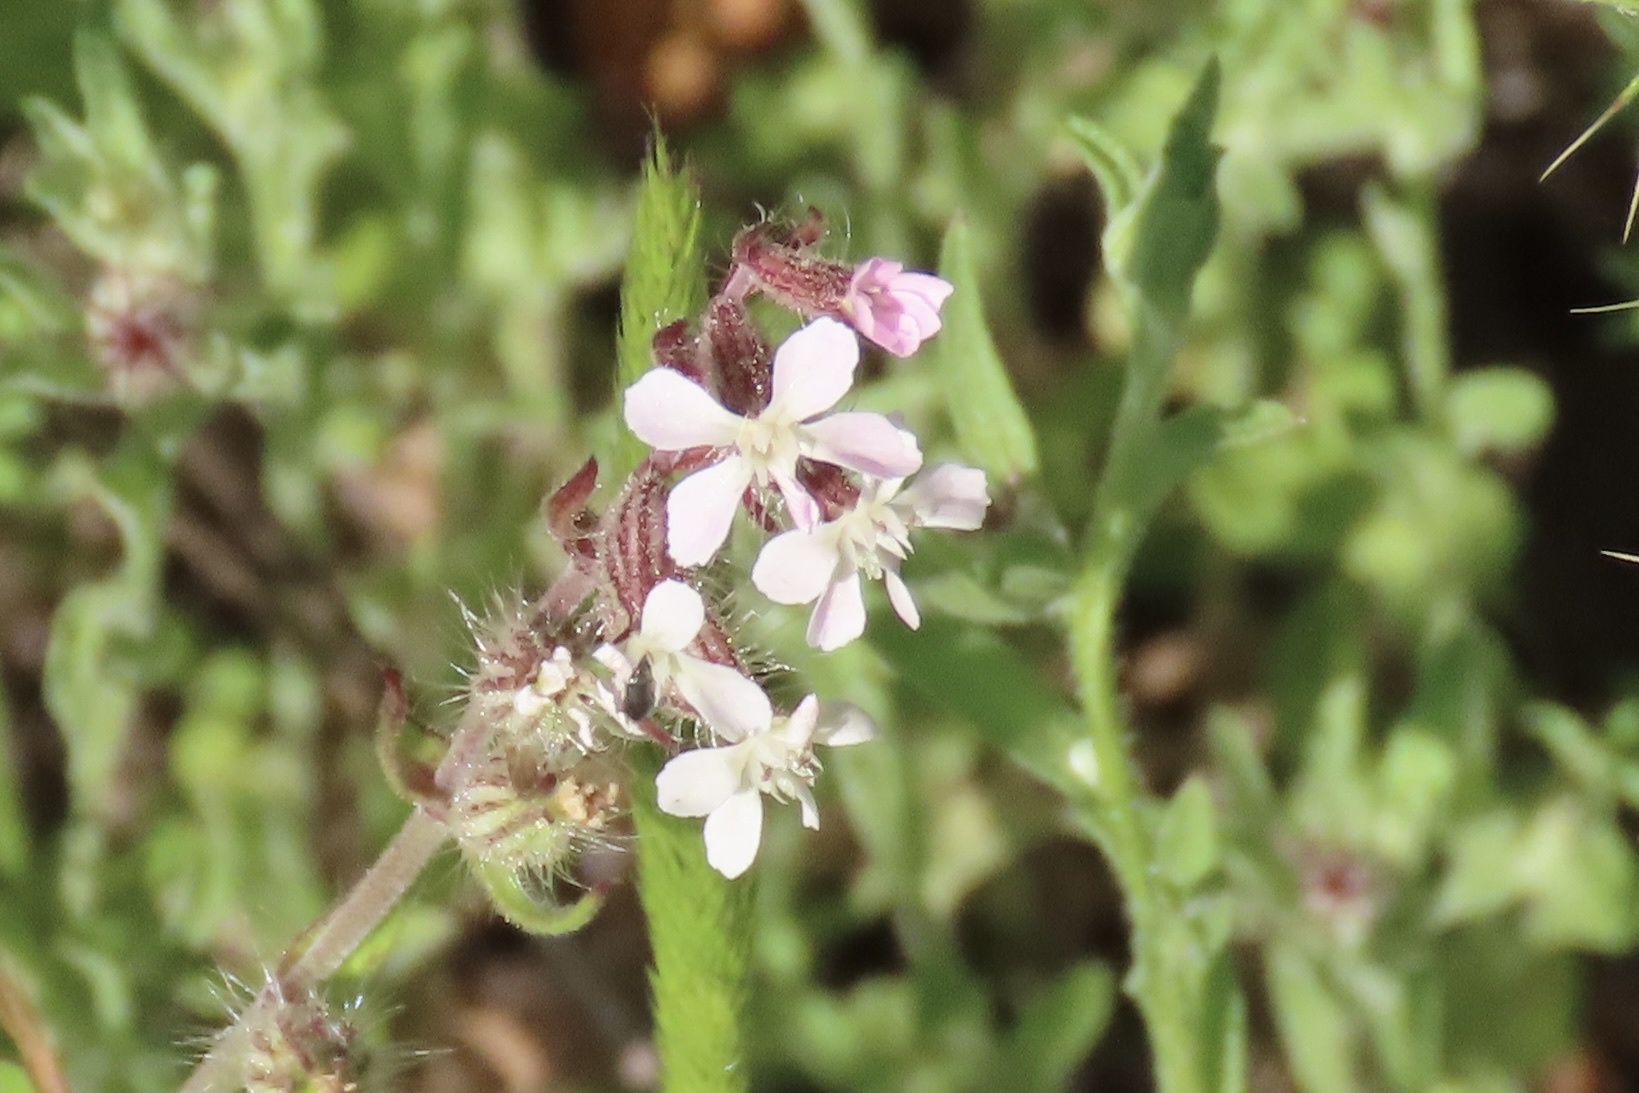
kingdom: Plantae
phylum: Tracheophyta
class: Magnoliopsida
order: Caryophyllales
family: Caryophyllaceae
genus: Silene
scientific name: Silene gallica
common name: Small-flowered catchfly
